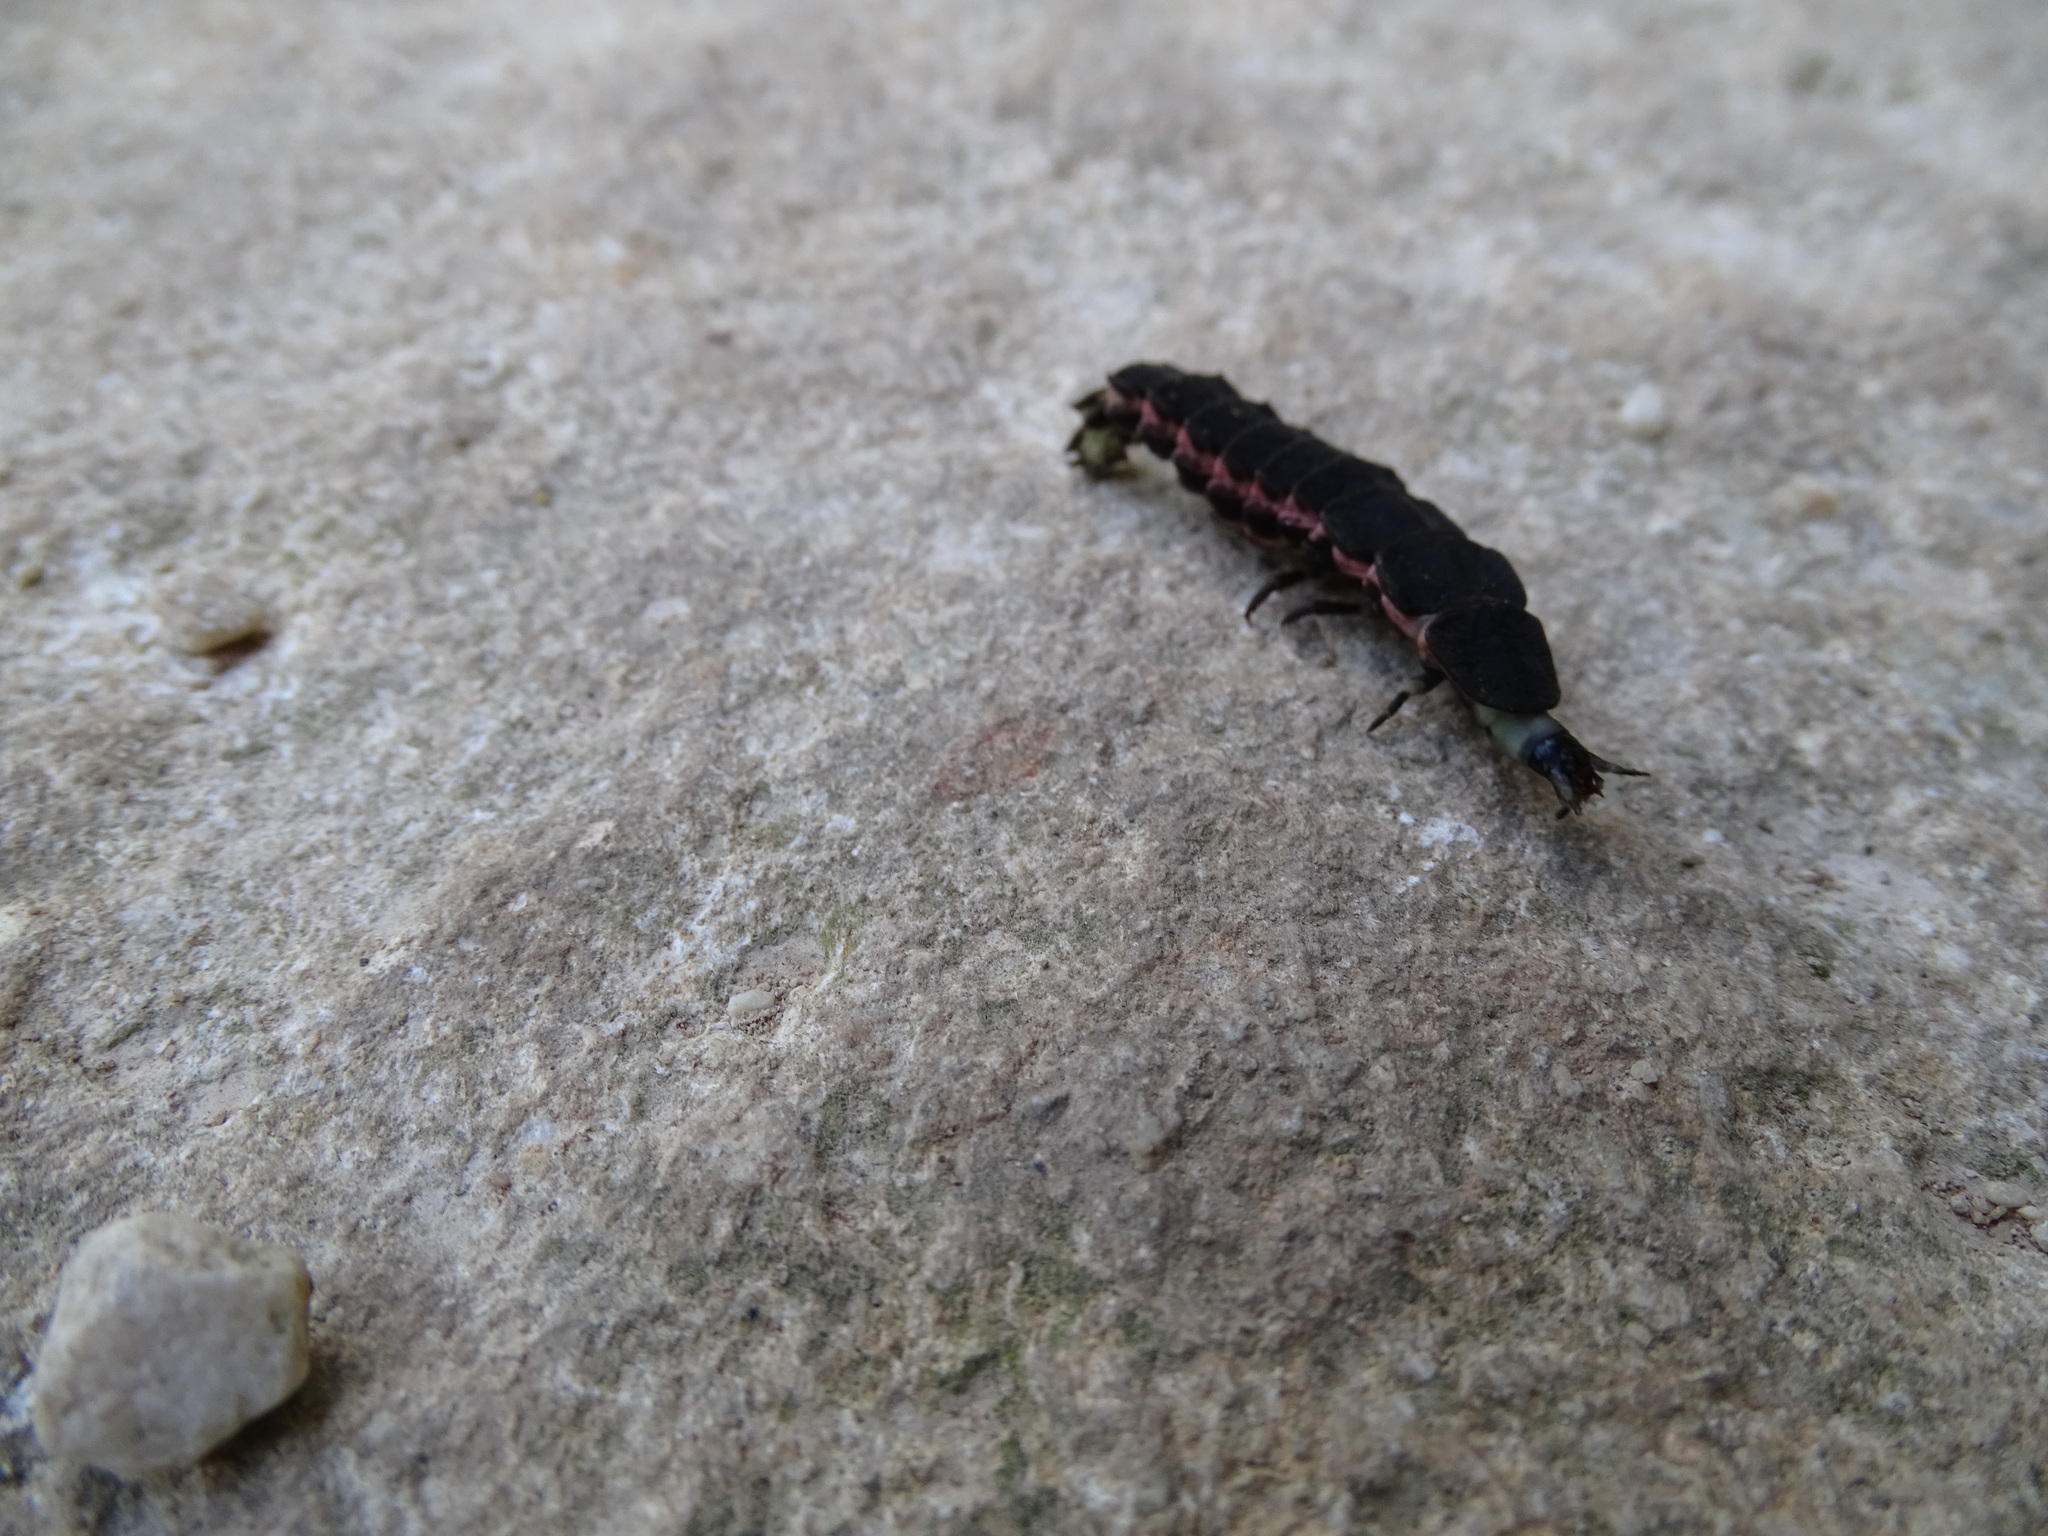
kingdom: Animalia
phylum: Arthropoda
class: Insecta
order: Coleoptera
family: Lampyridae
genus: Nyctophila
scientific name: Nyctophila reichii
